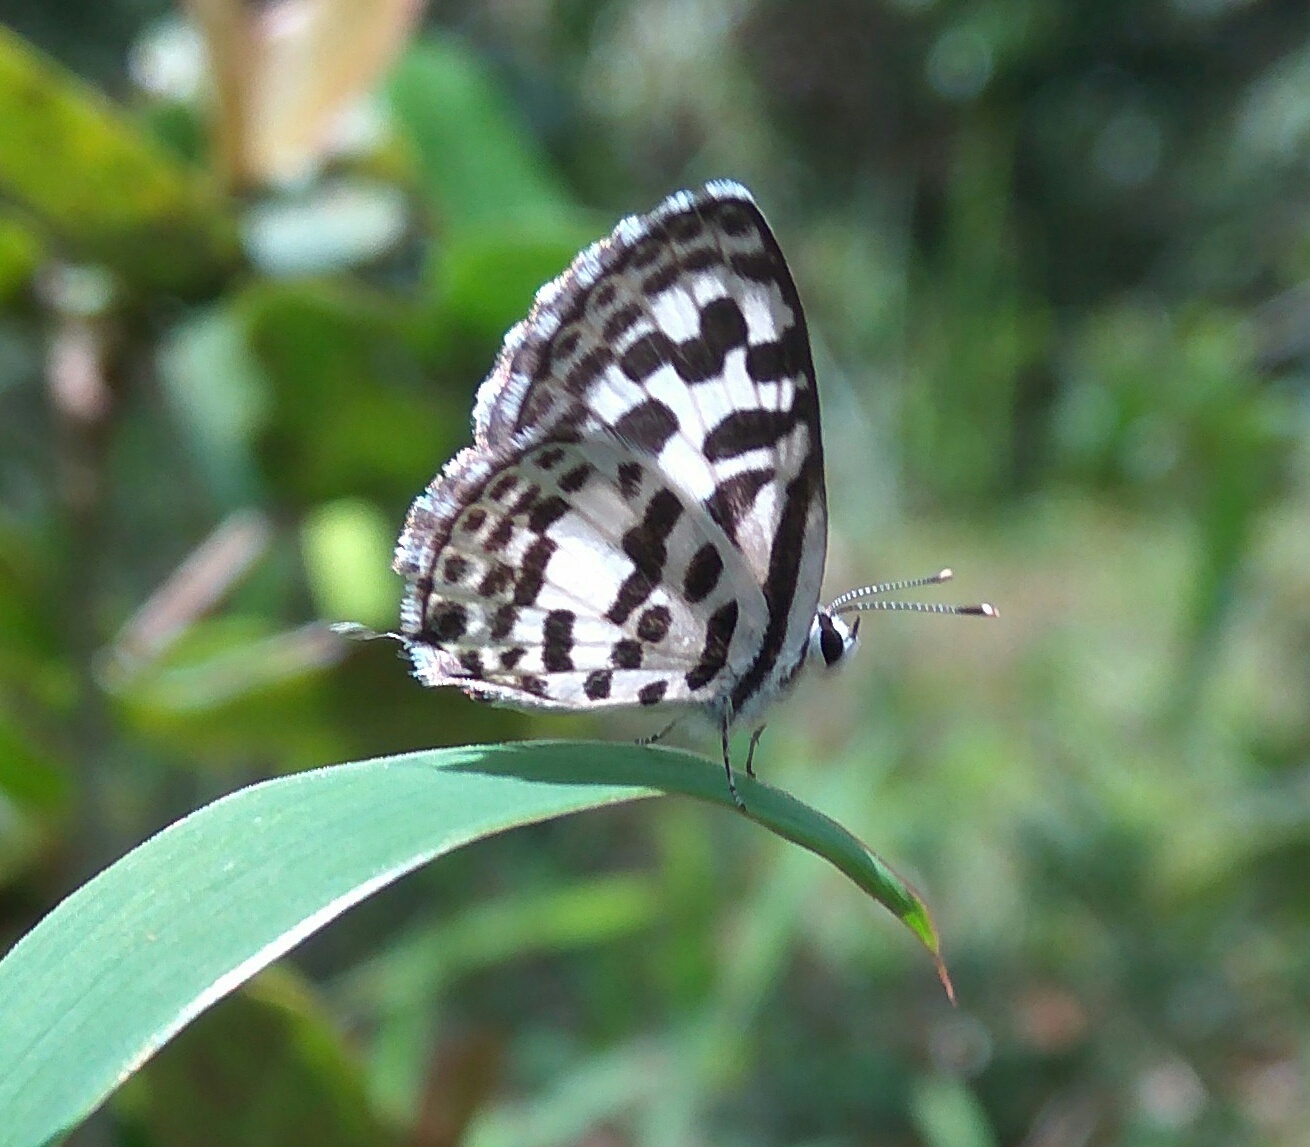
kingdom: Animalia
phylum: Arthropoda
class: Insecta
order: Lepidoptera
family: Lycaenidae
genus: Castalius
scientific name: Castalius rosimon
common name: Common pierrot
